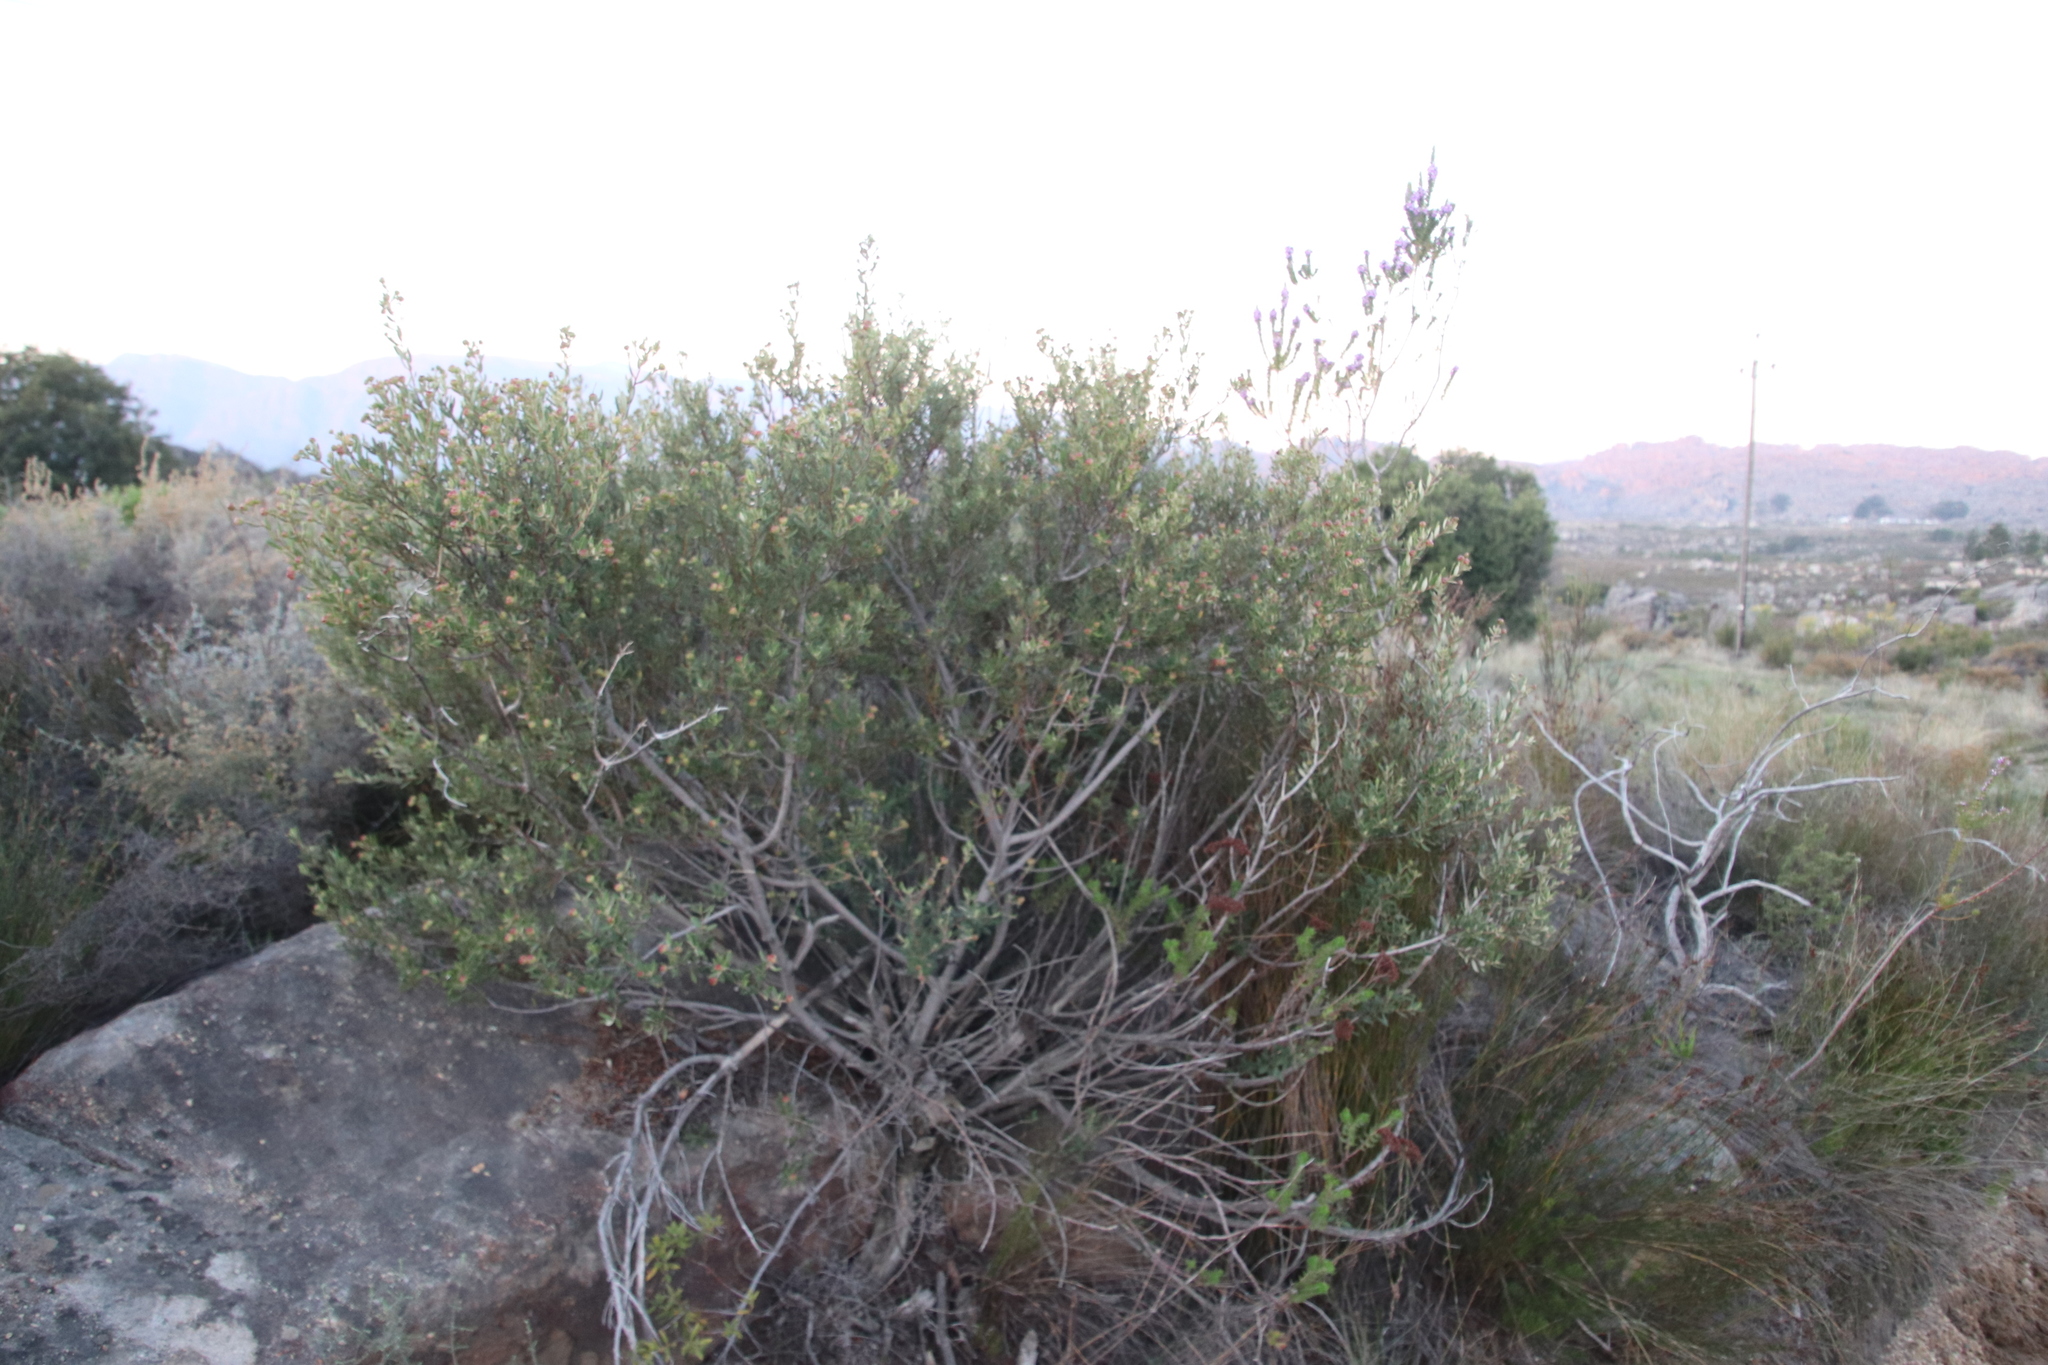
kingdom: Plantae
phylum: Tracheophyta
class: Magnoliopsida
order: Rosales
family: Rhamnaceae
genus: Phylica
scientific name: Phylica oleifolia
